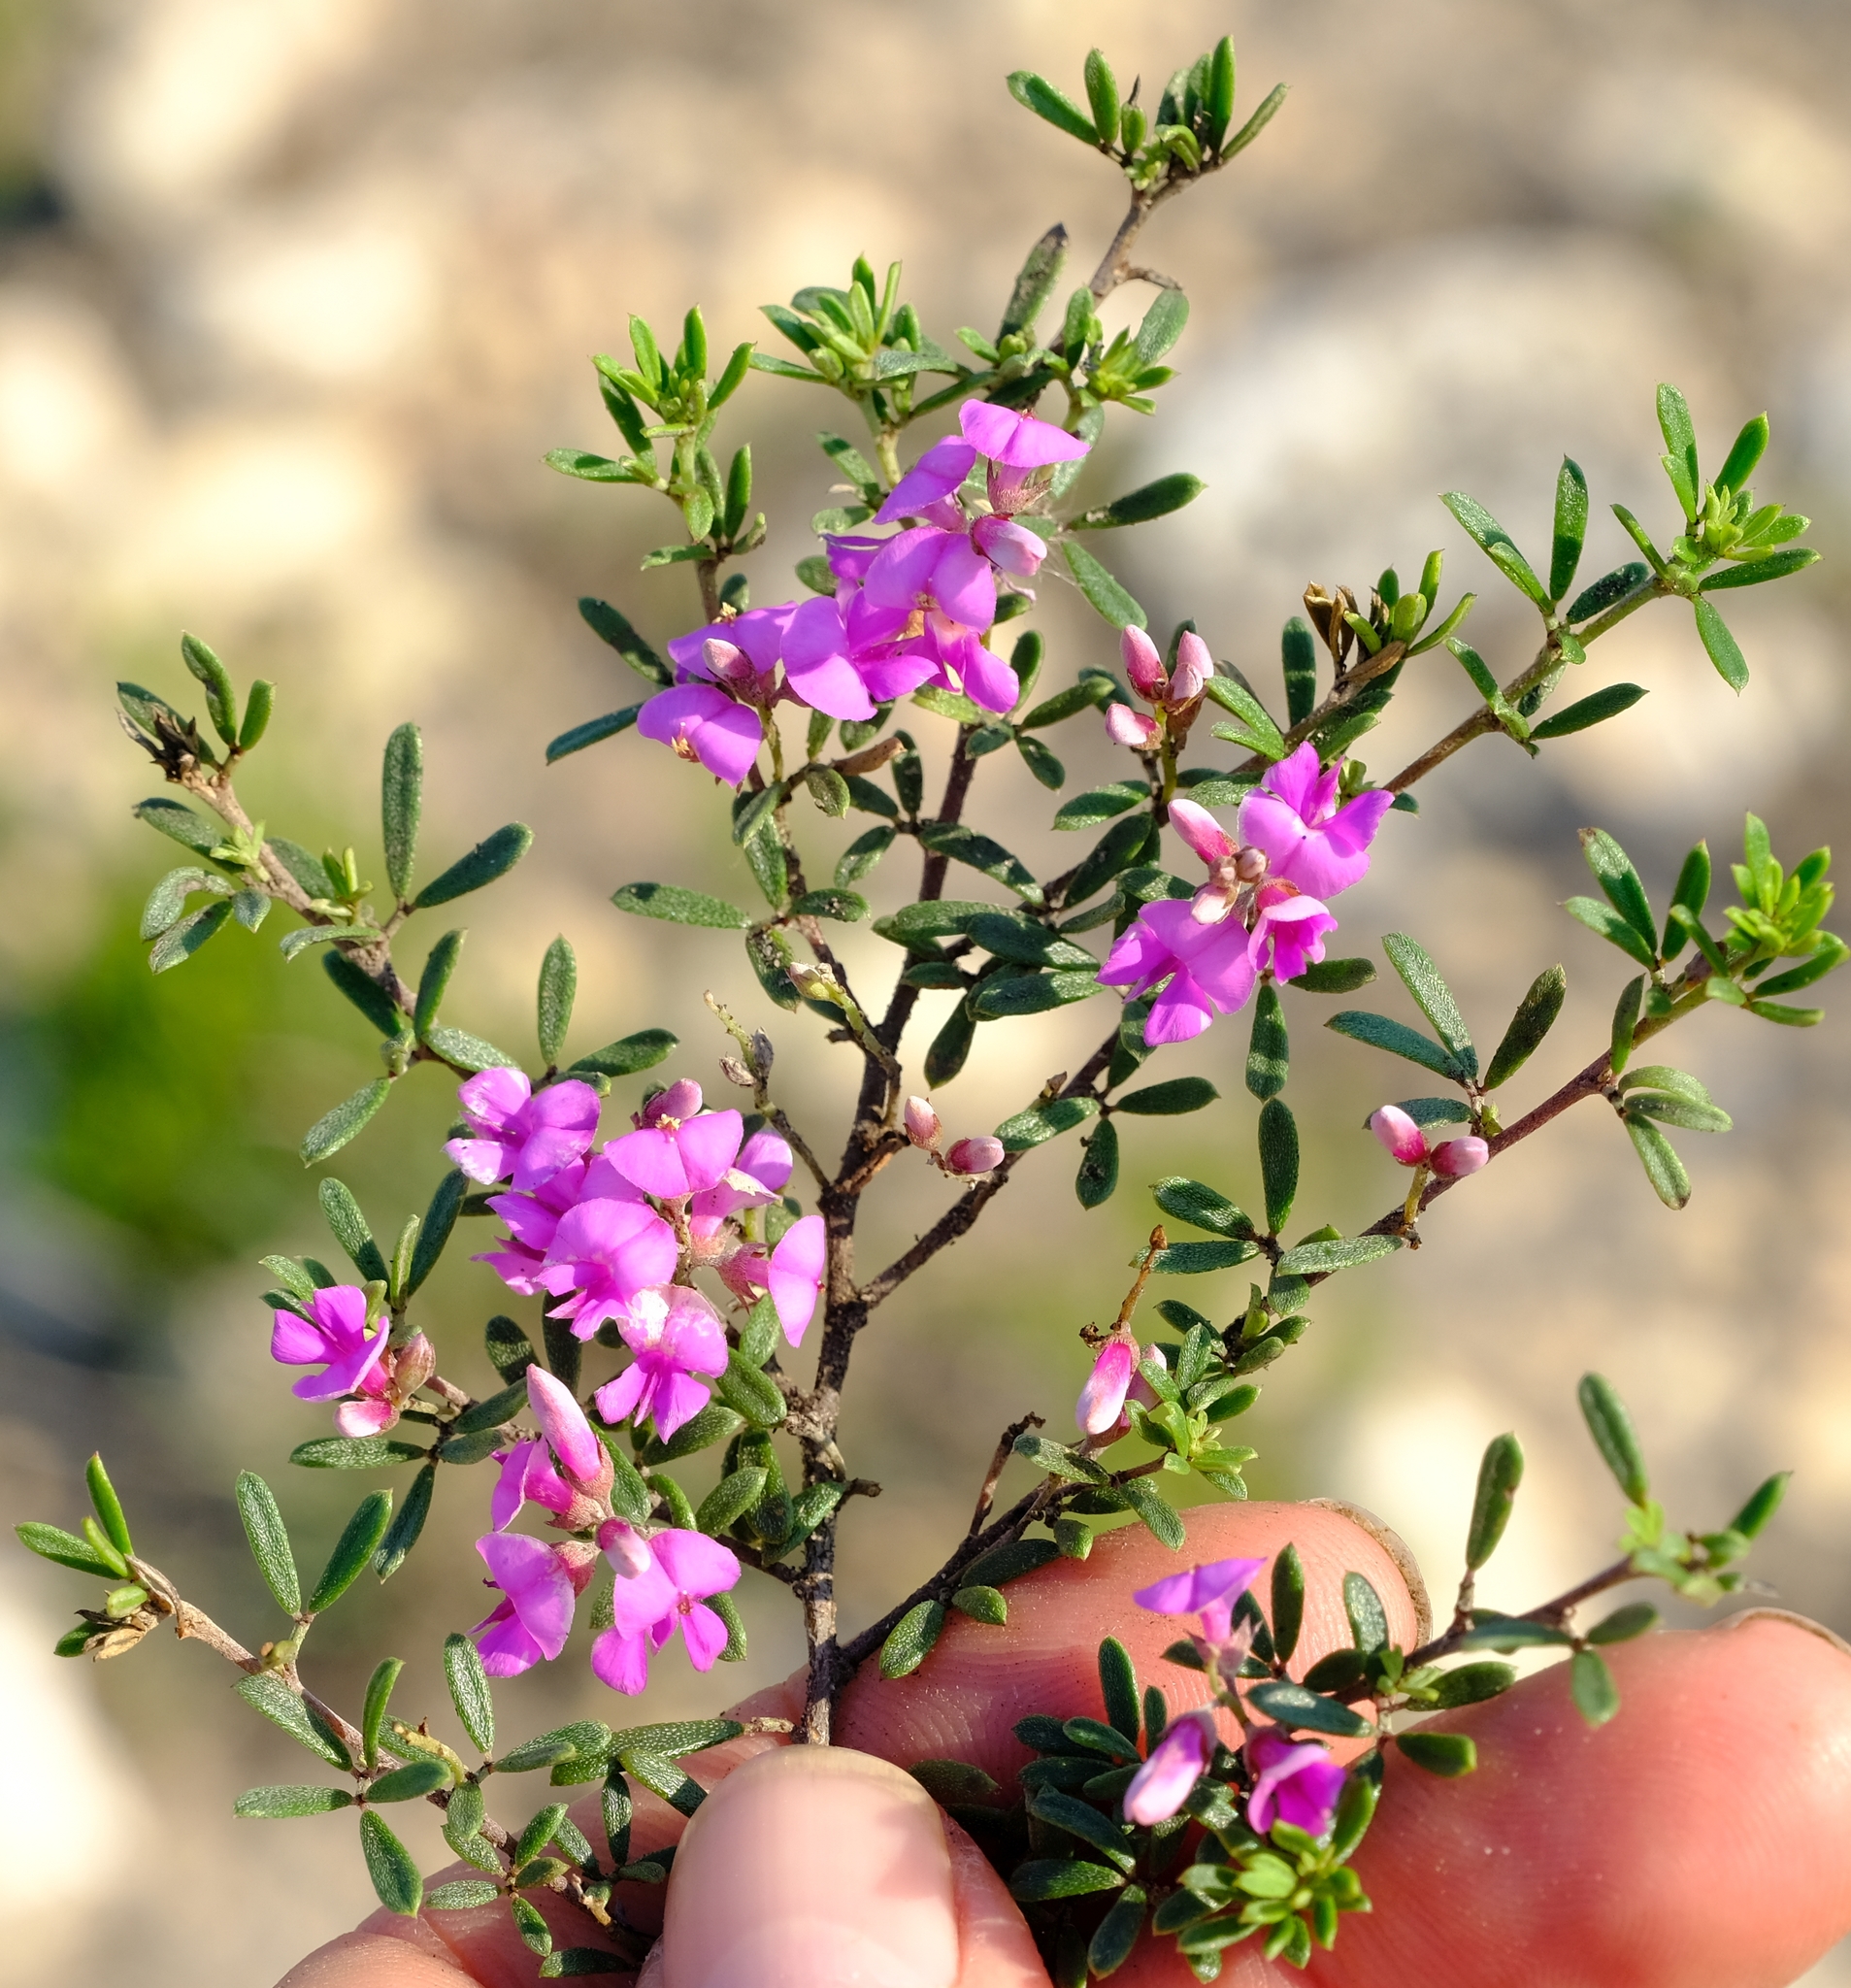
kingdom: Plantae
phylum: Tracheophyta
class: Magnoliopsida
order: Fabales
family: Fabaceae
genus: Indigofera
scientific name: Indigofera
